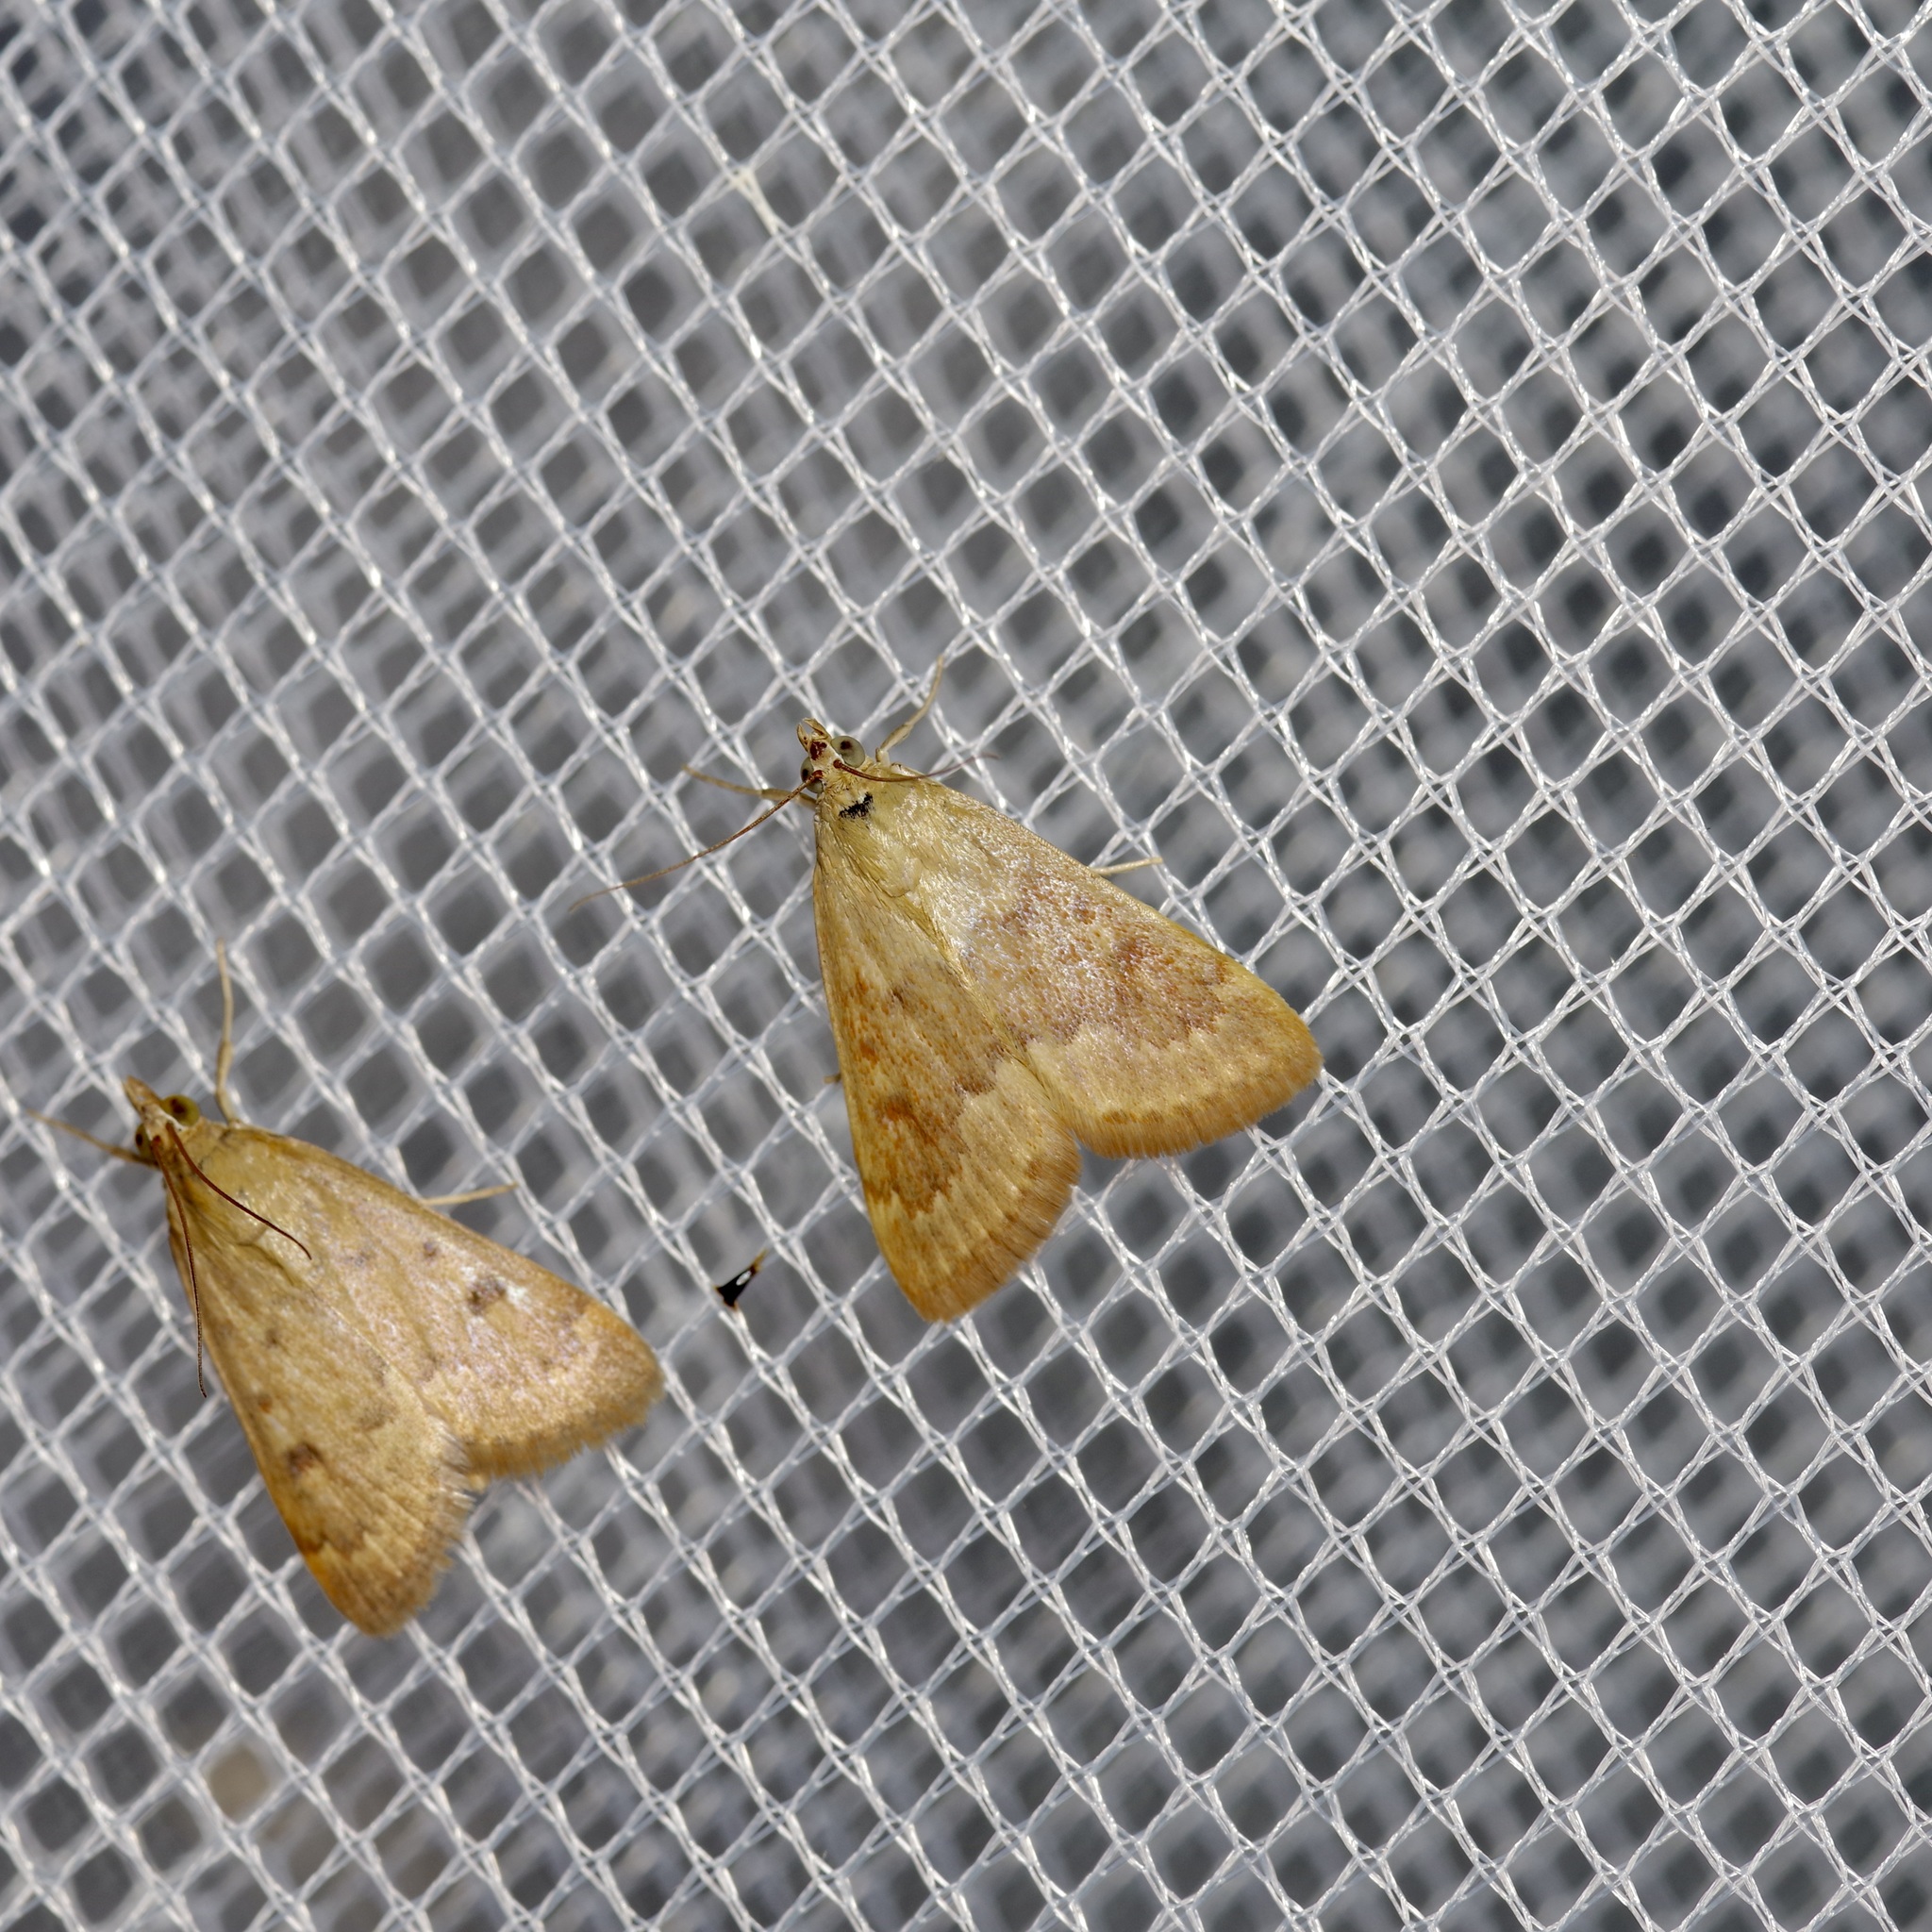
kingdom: Animalia
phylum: Arthropoda
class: Insecta
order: Lepidoptera
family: Crambidae
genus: Achyra
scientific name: Achyra rantalis
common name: Garden webworm
